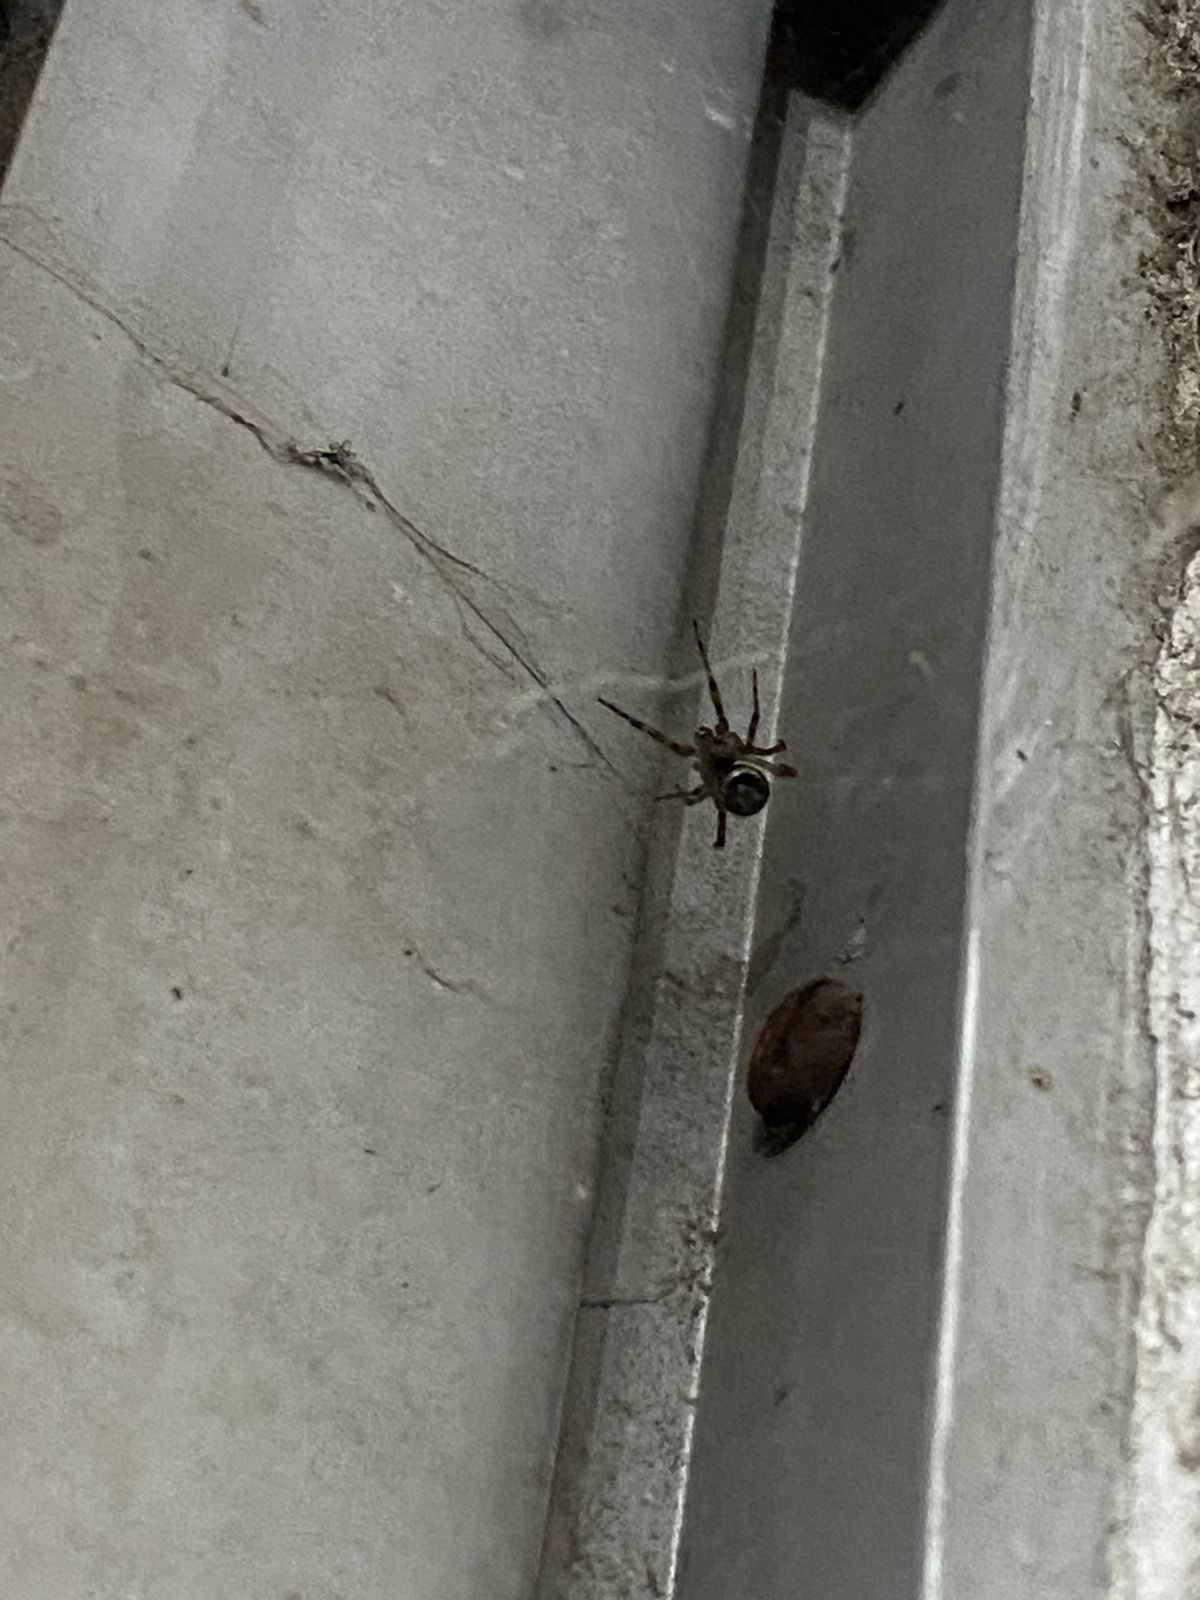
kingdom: Animalia
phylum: Arthropoda
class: Arachnida
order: Araneae
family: Theridiidae
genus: Steatoda
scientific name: Steatoda nobilis
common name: Cobweb weaver
